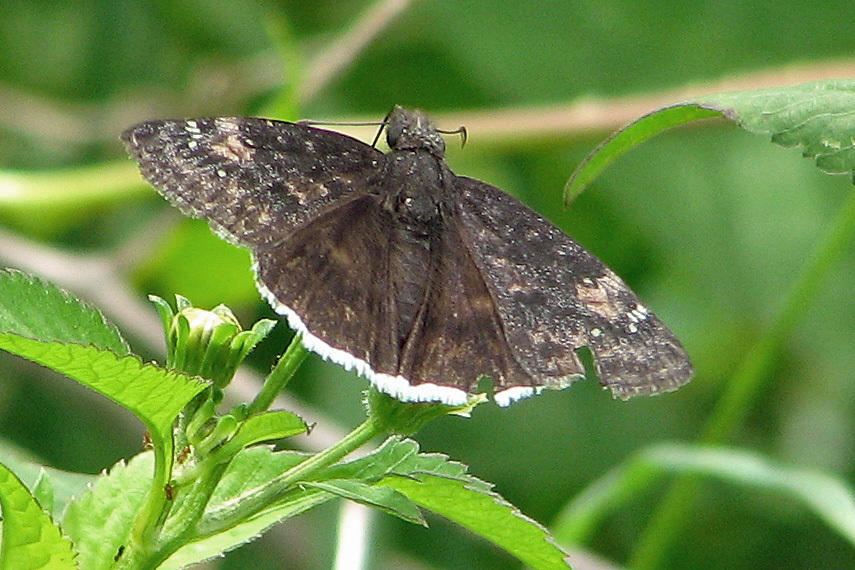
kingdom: Animalia
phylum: Arthropoda
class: Insecta
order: Lepidoptera
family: Hesperiidae
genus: Erynnis
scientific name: Erynnis funeralis
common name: Funereal duskywing
